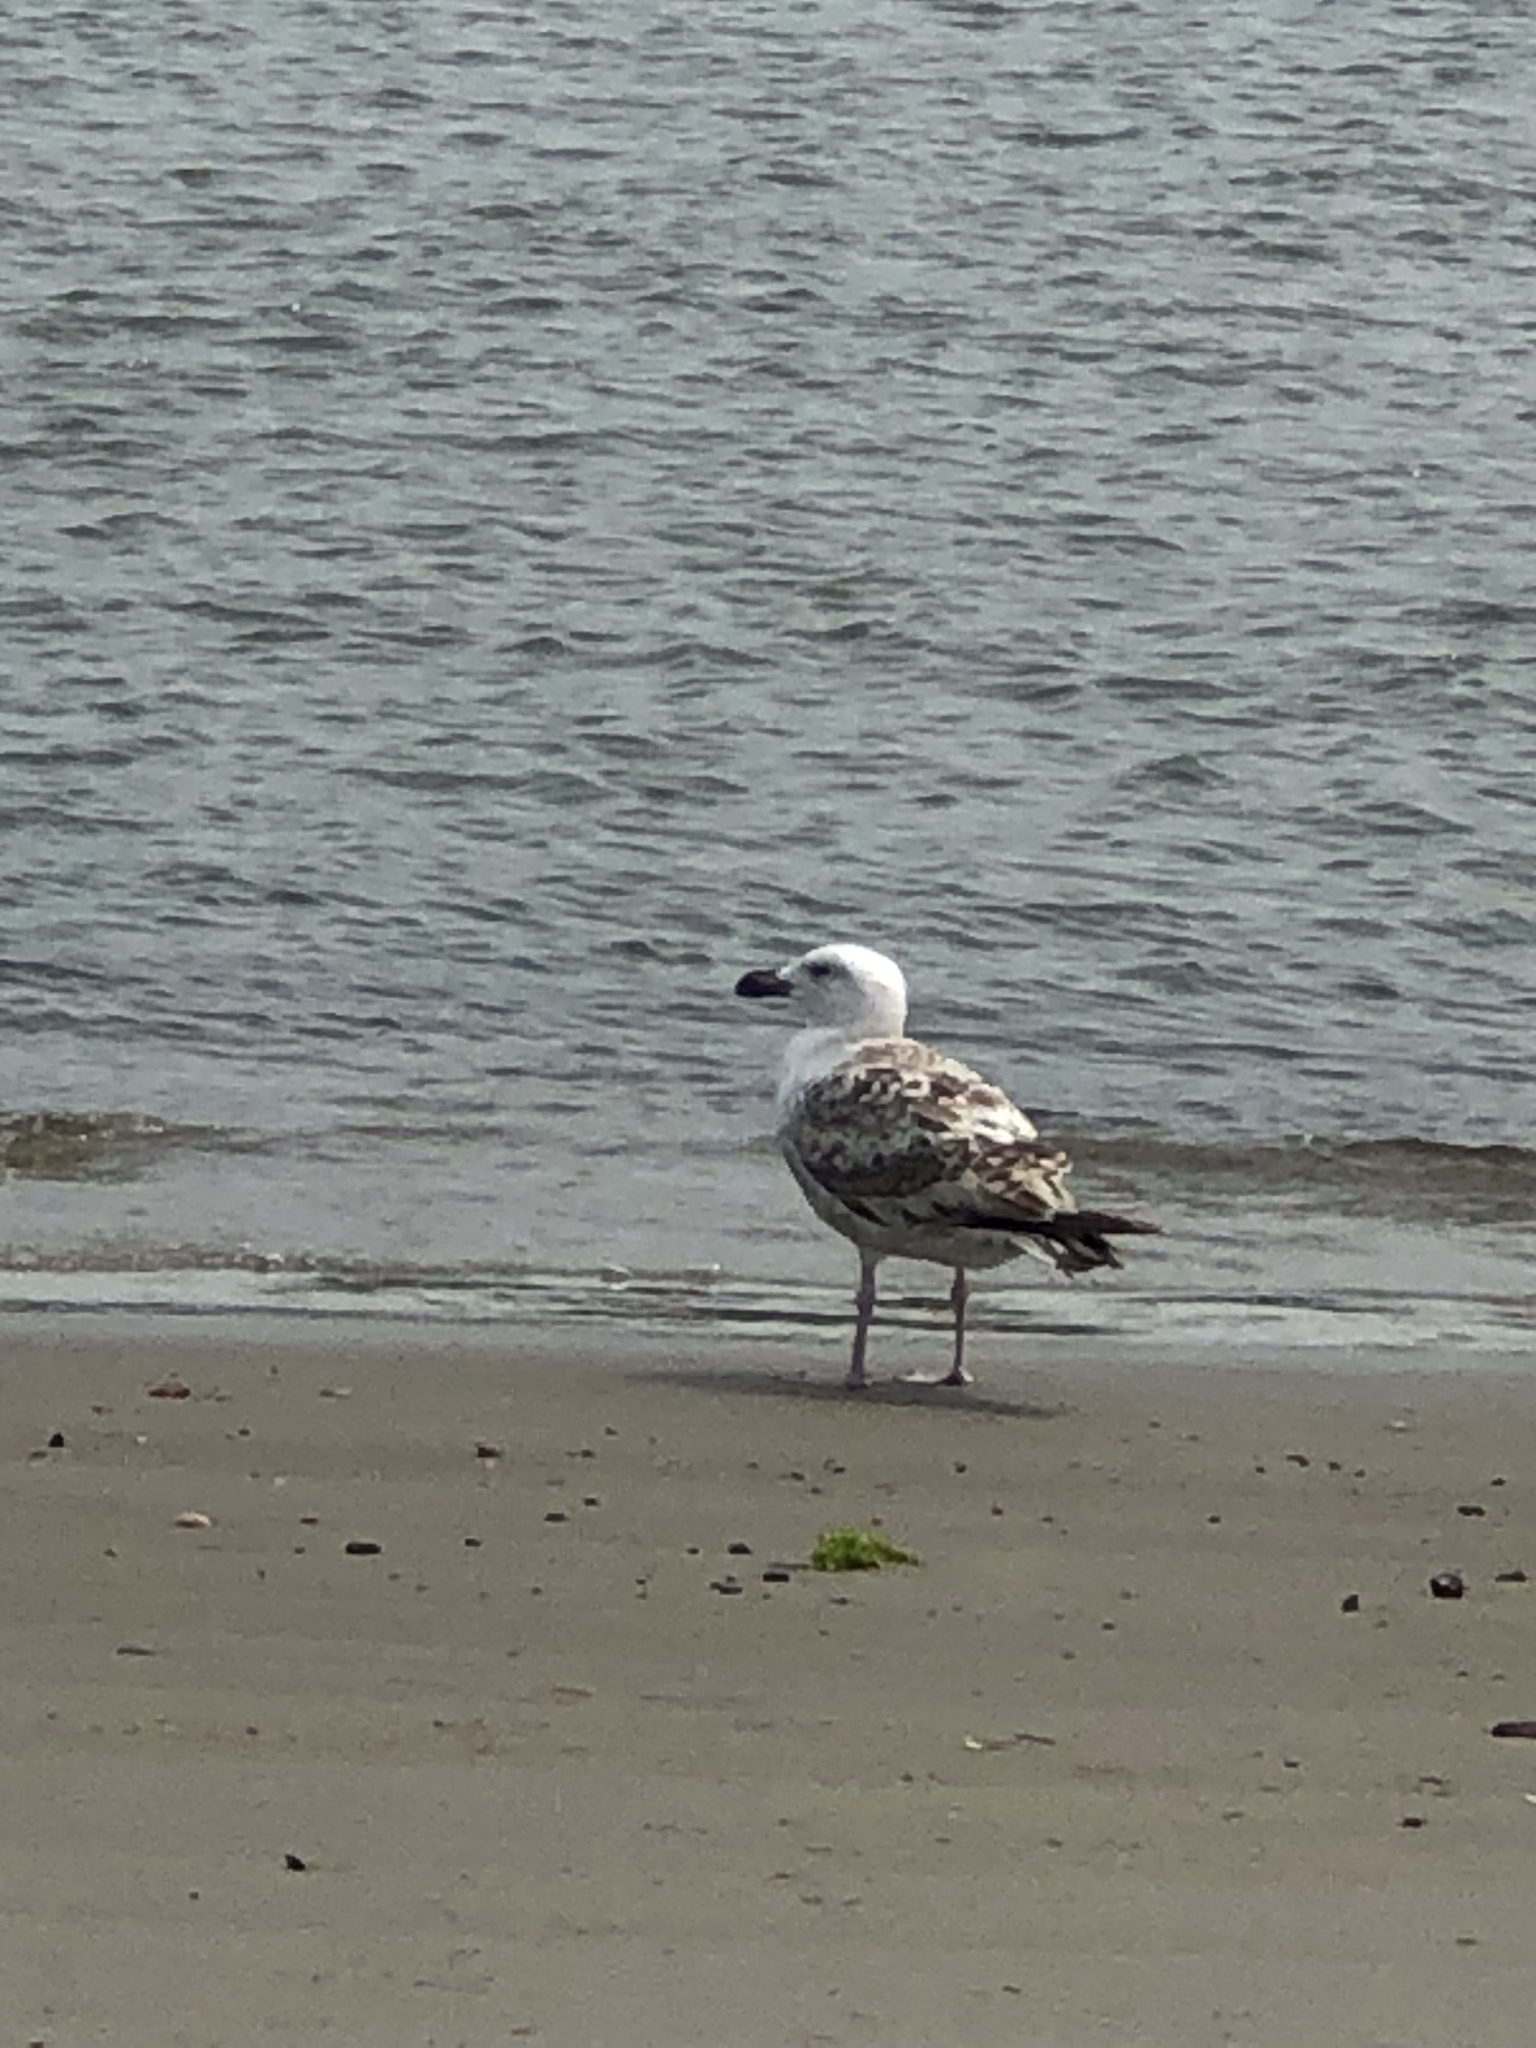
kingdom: Animalia
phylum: Chordata
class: Aves
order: Charadriiformes
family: Laridae
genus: Larus
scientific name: Larus marinus
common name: Great black-backed gull
